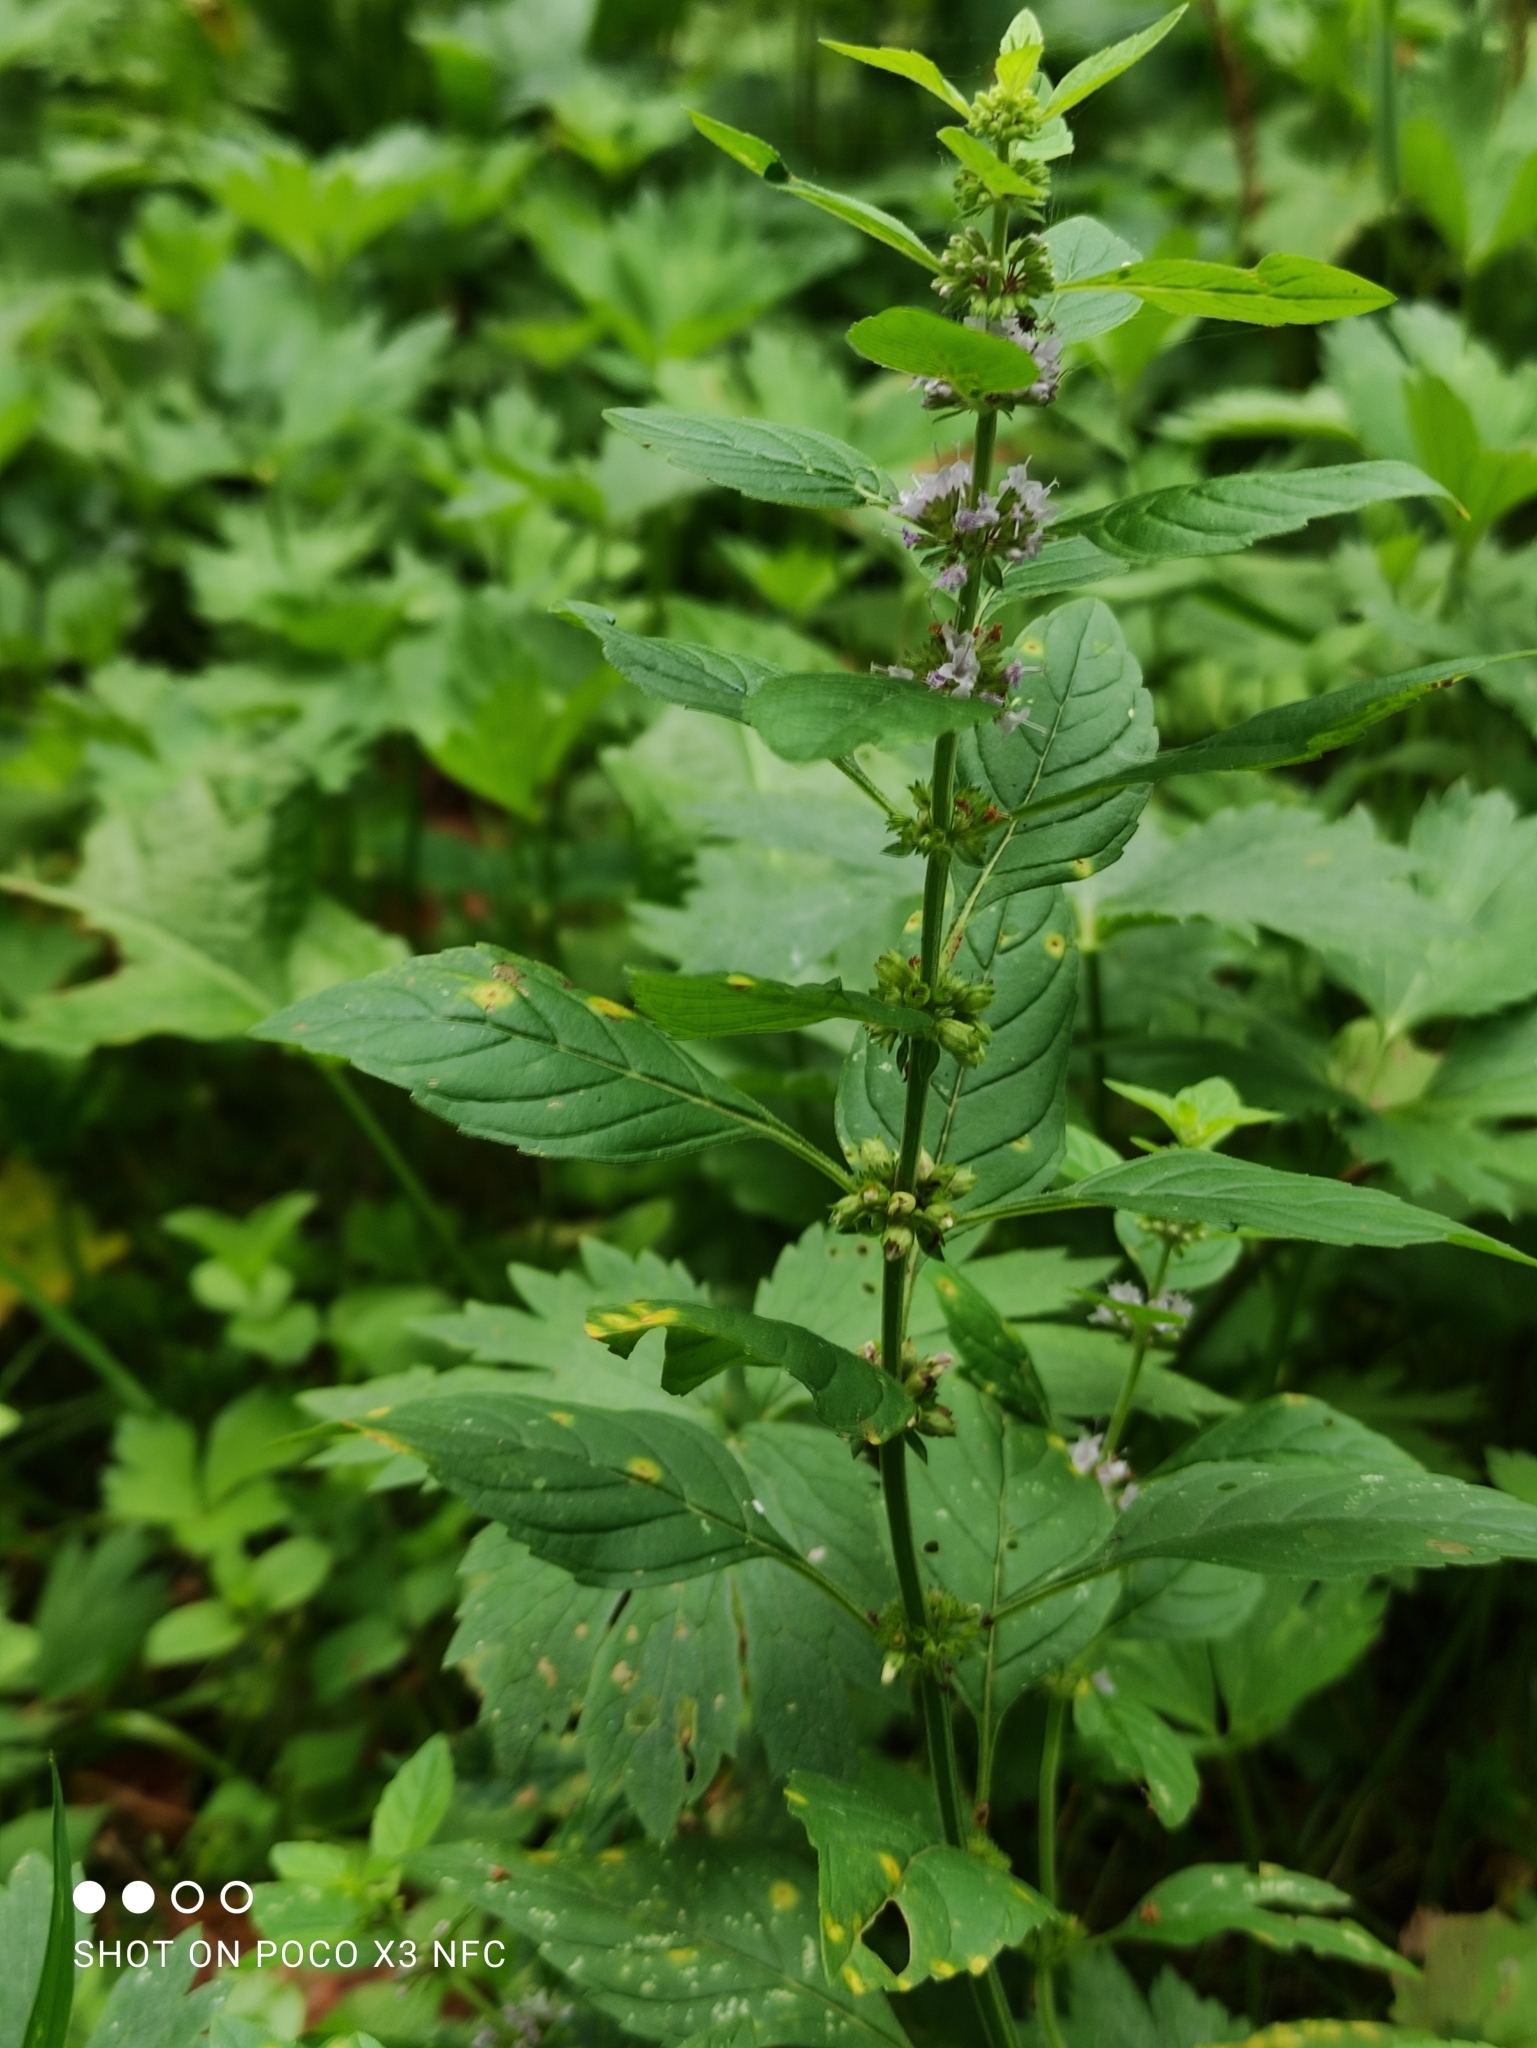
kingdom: Plantae
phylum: Tracheophyta
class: Magnoliopsida
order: Lamiales
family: Lamiaceae
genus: Mentha
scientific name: Mentha arvensis
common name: Corn mint
